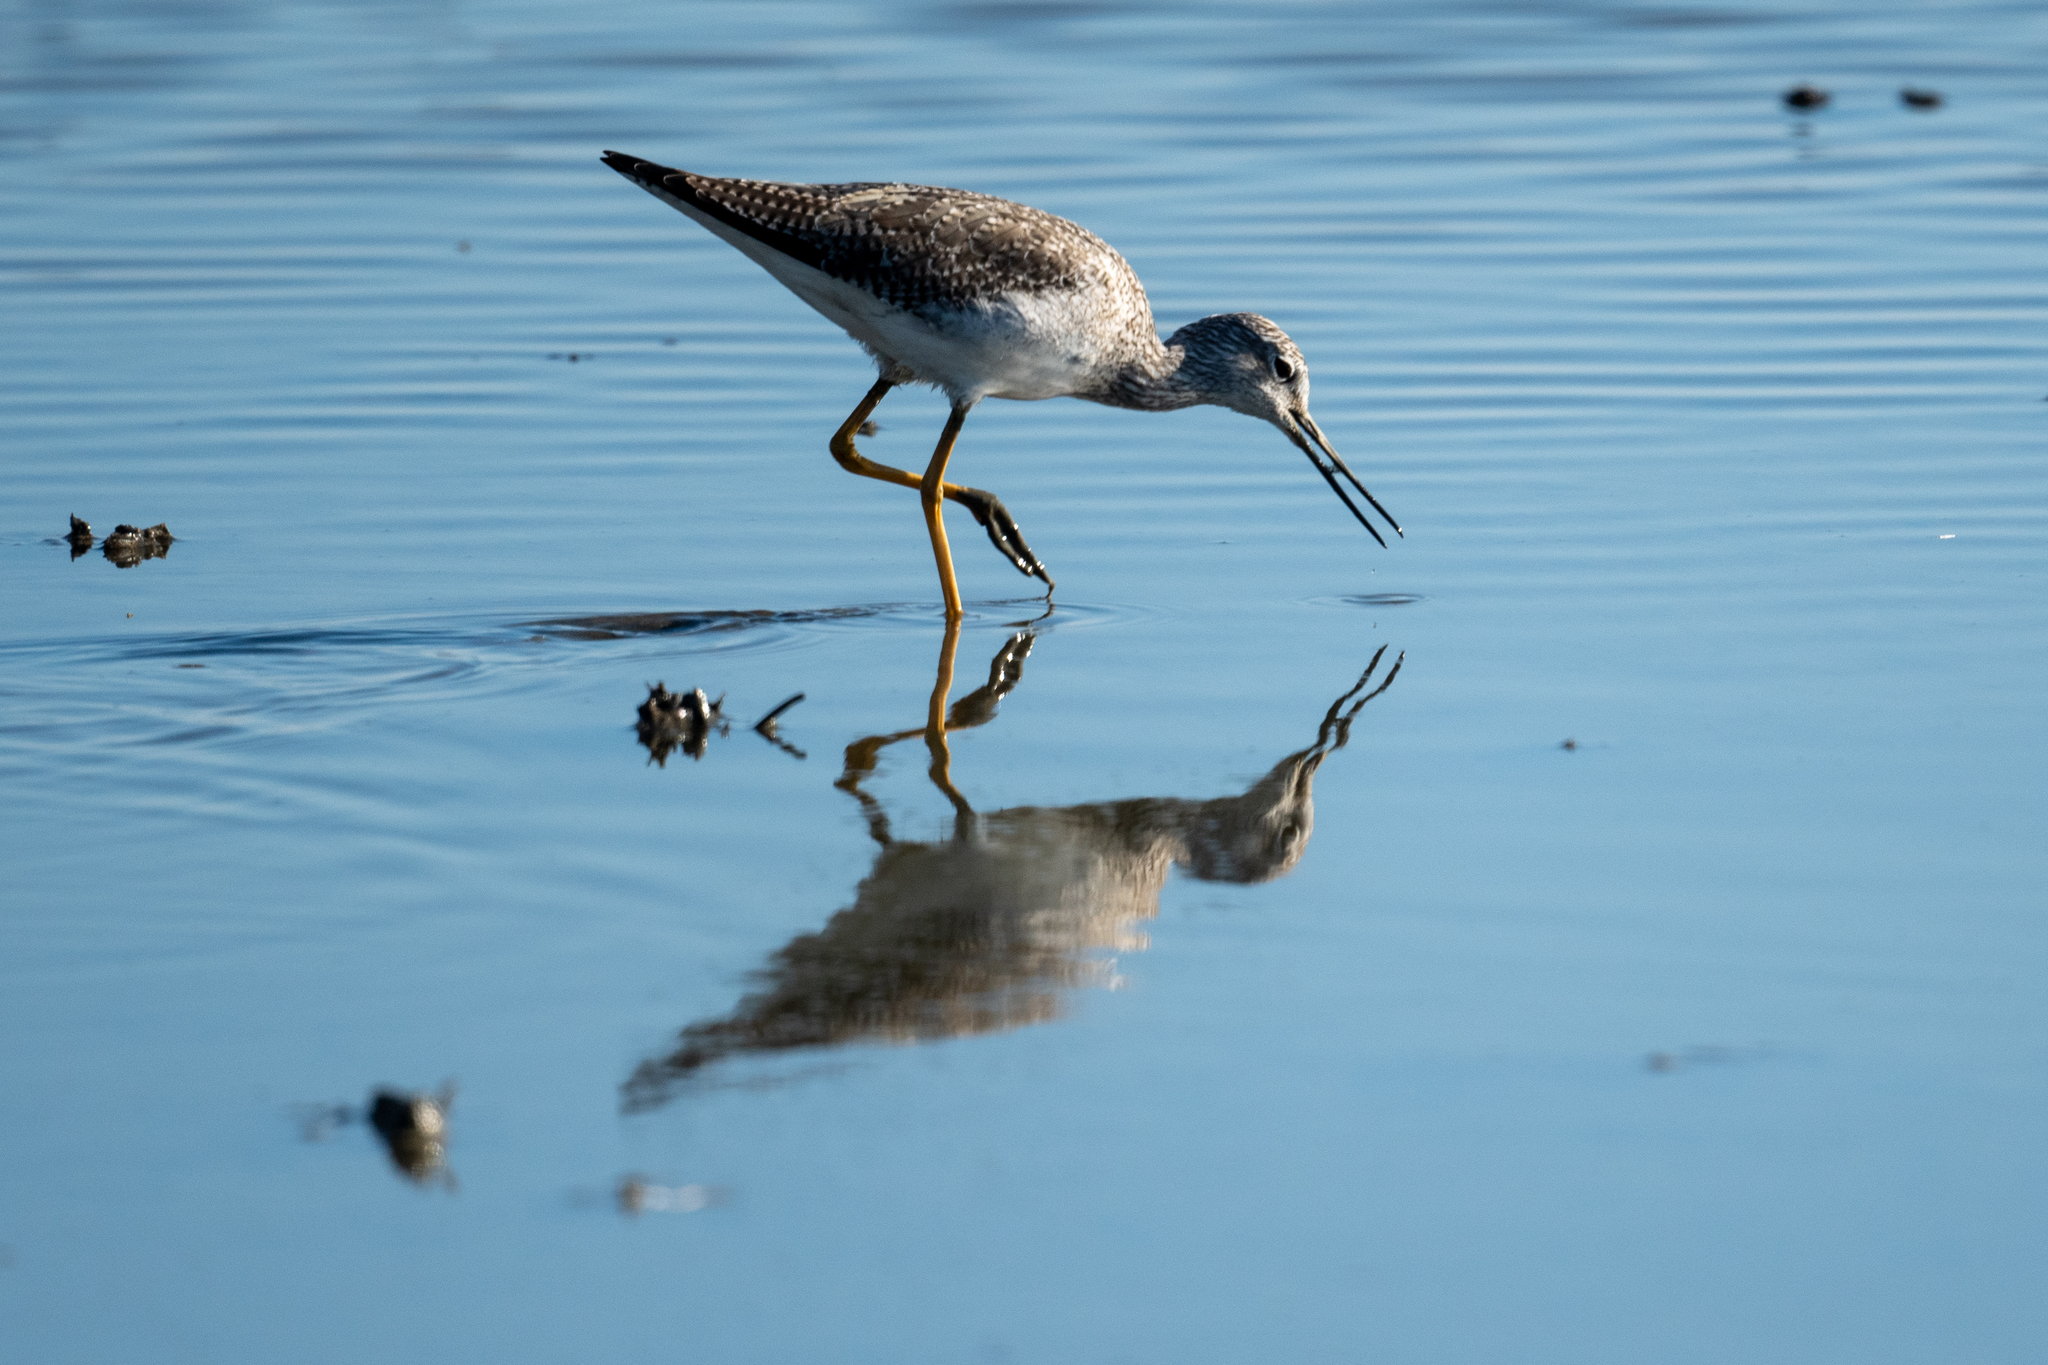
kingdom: Animalia
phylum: Chordata
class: Aves
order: Charadriiformes
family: Scolopacidae
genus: Tringa
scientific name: Tringa melanoleuca
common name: Greater yellowlegs
